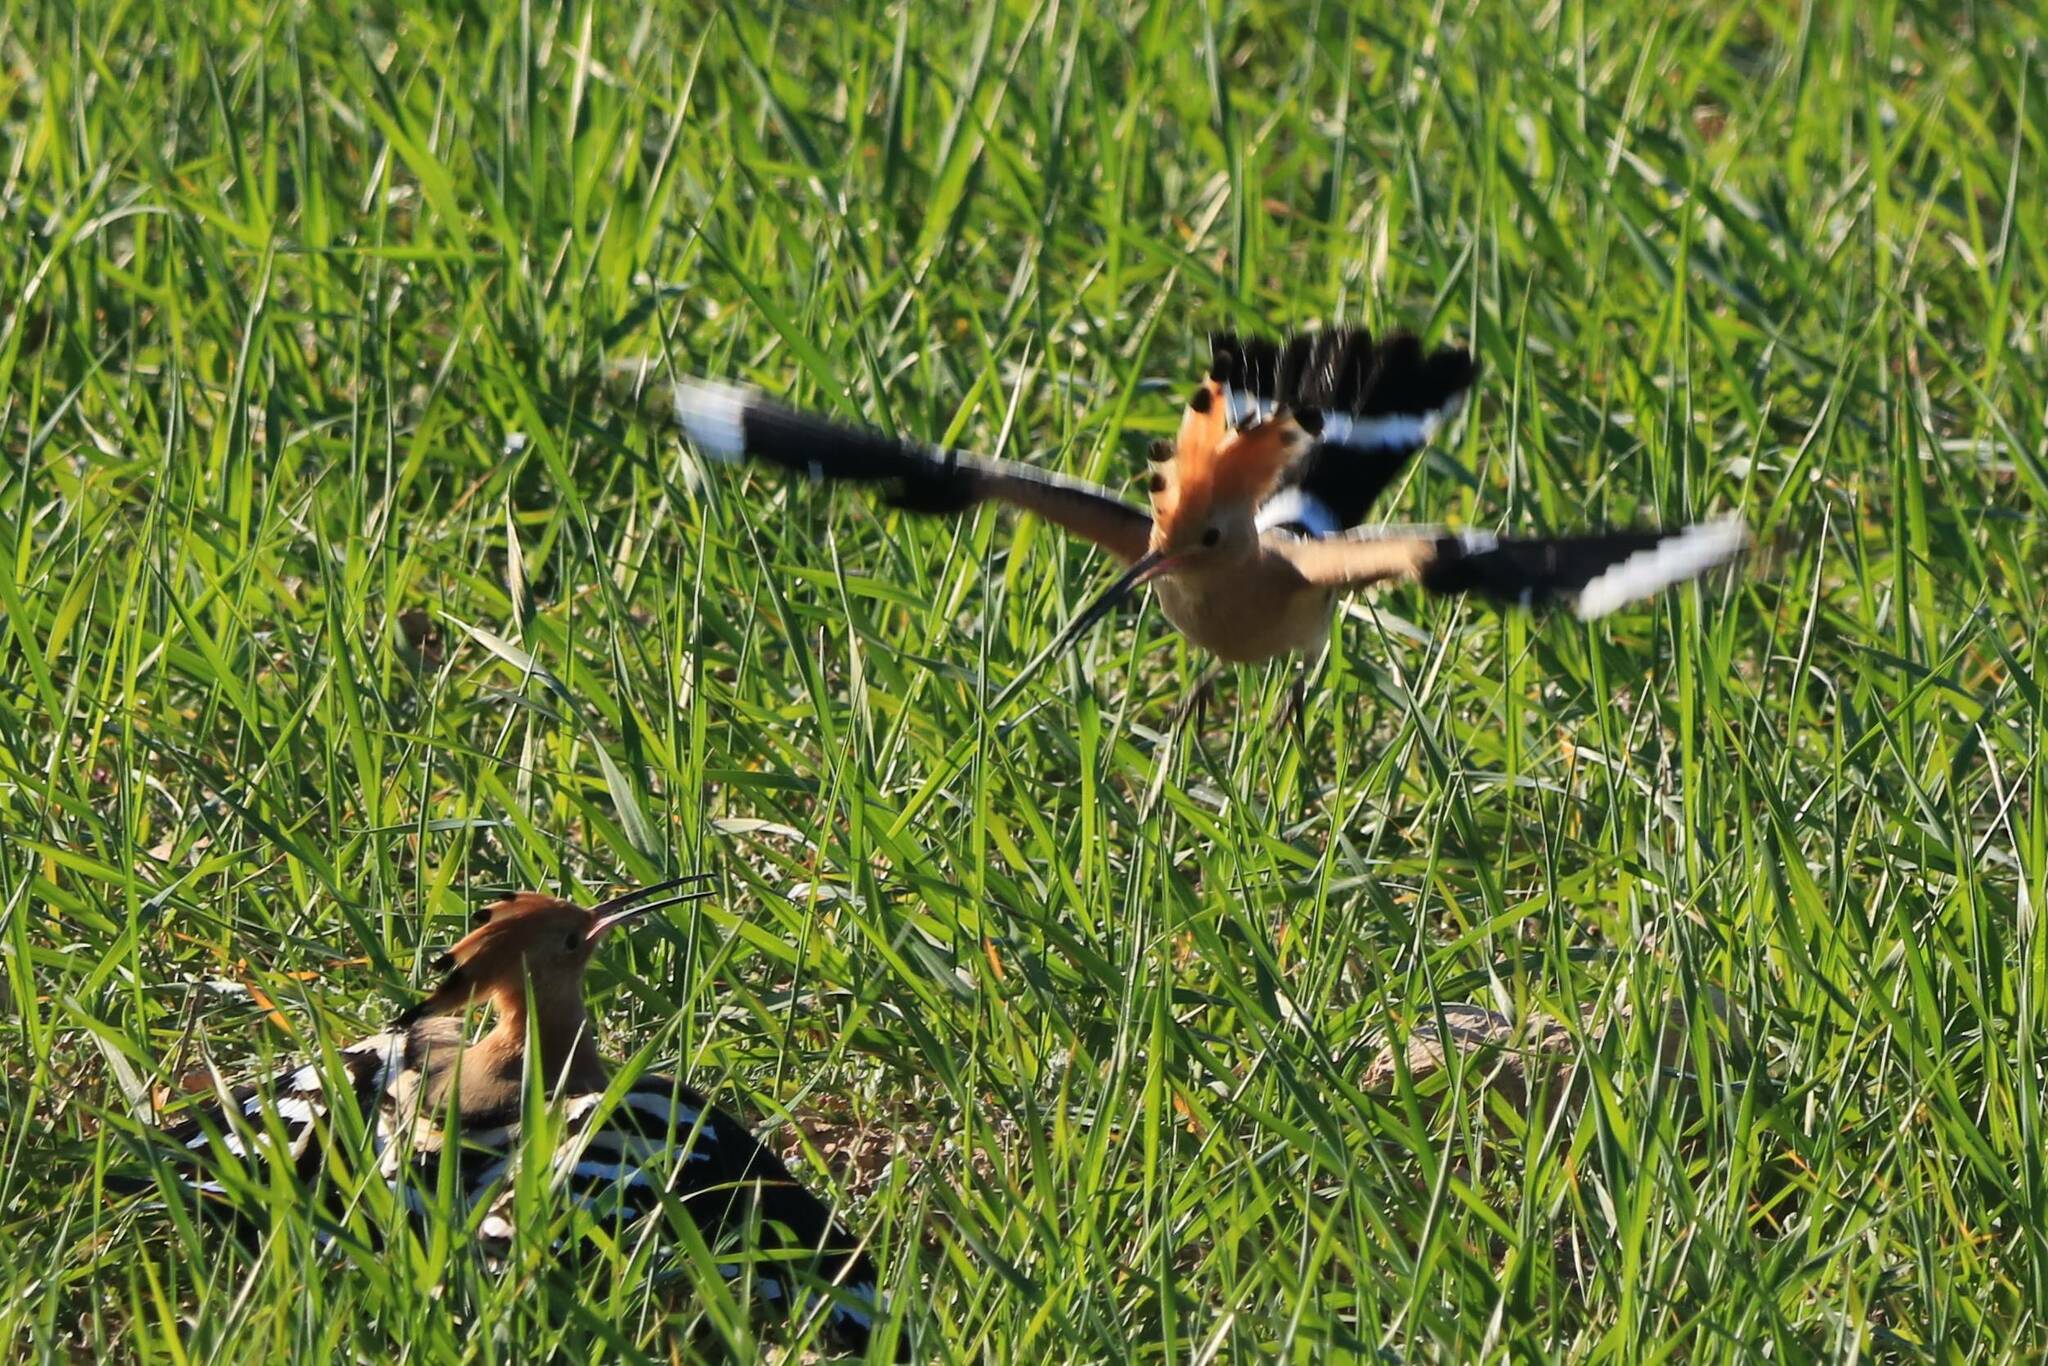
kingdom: Animalia
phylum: Chordata
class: Aves
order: Bucerotiformes
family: Upupidae
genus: Upupa
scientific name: Upupa epops
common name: Eurasian hoopoe
